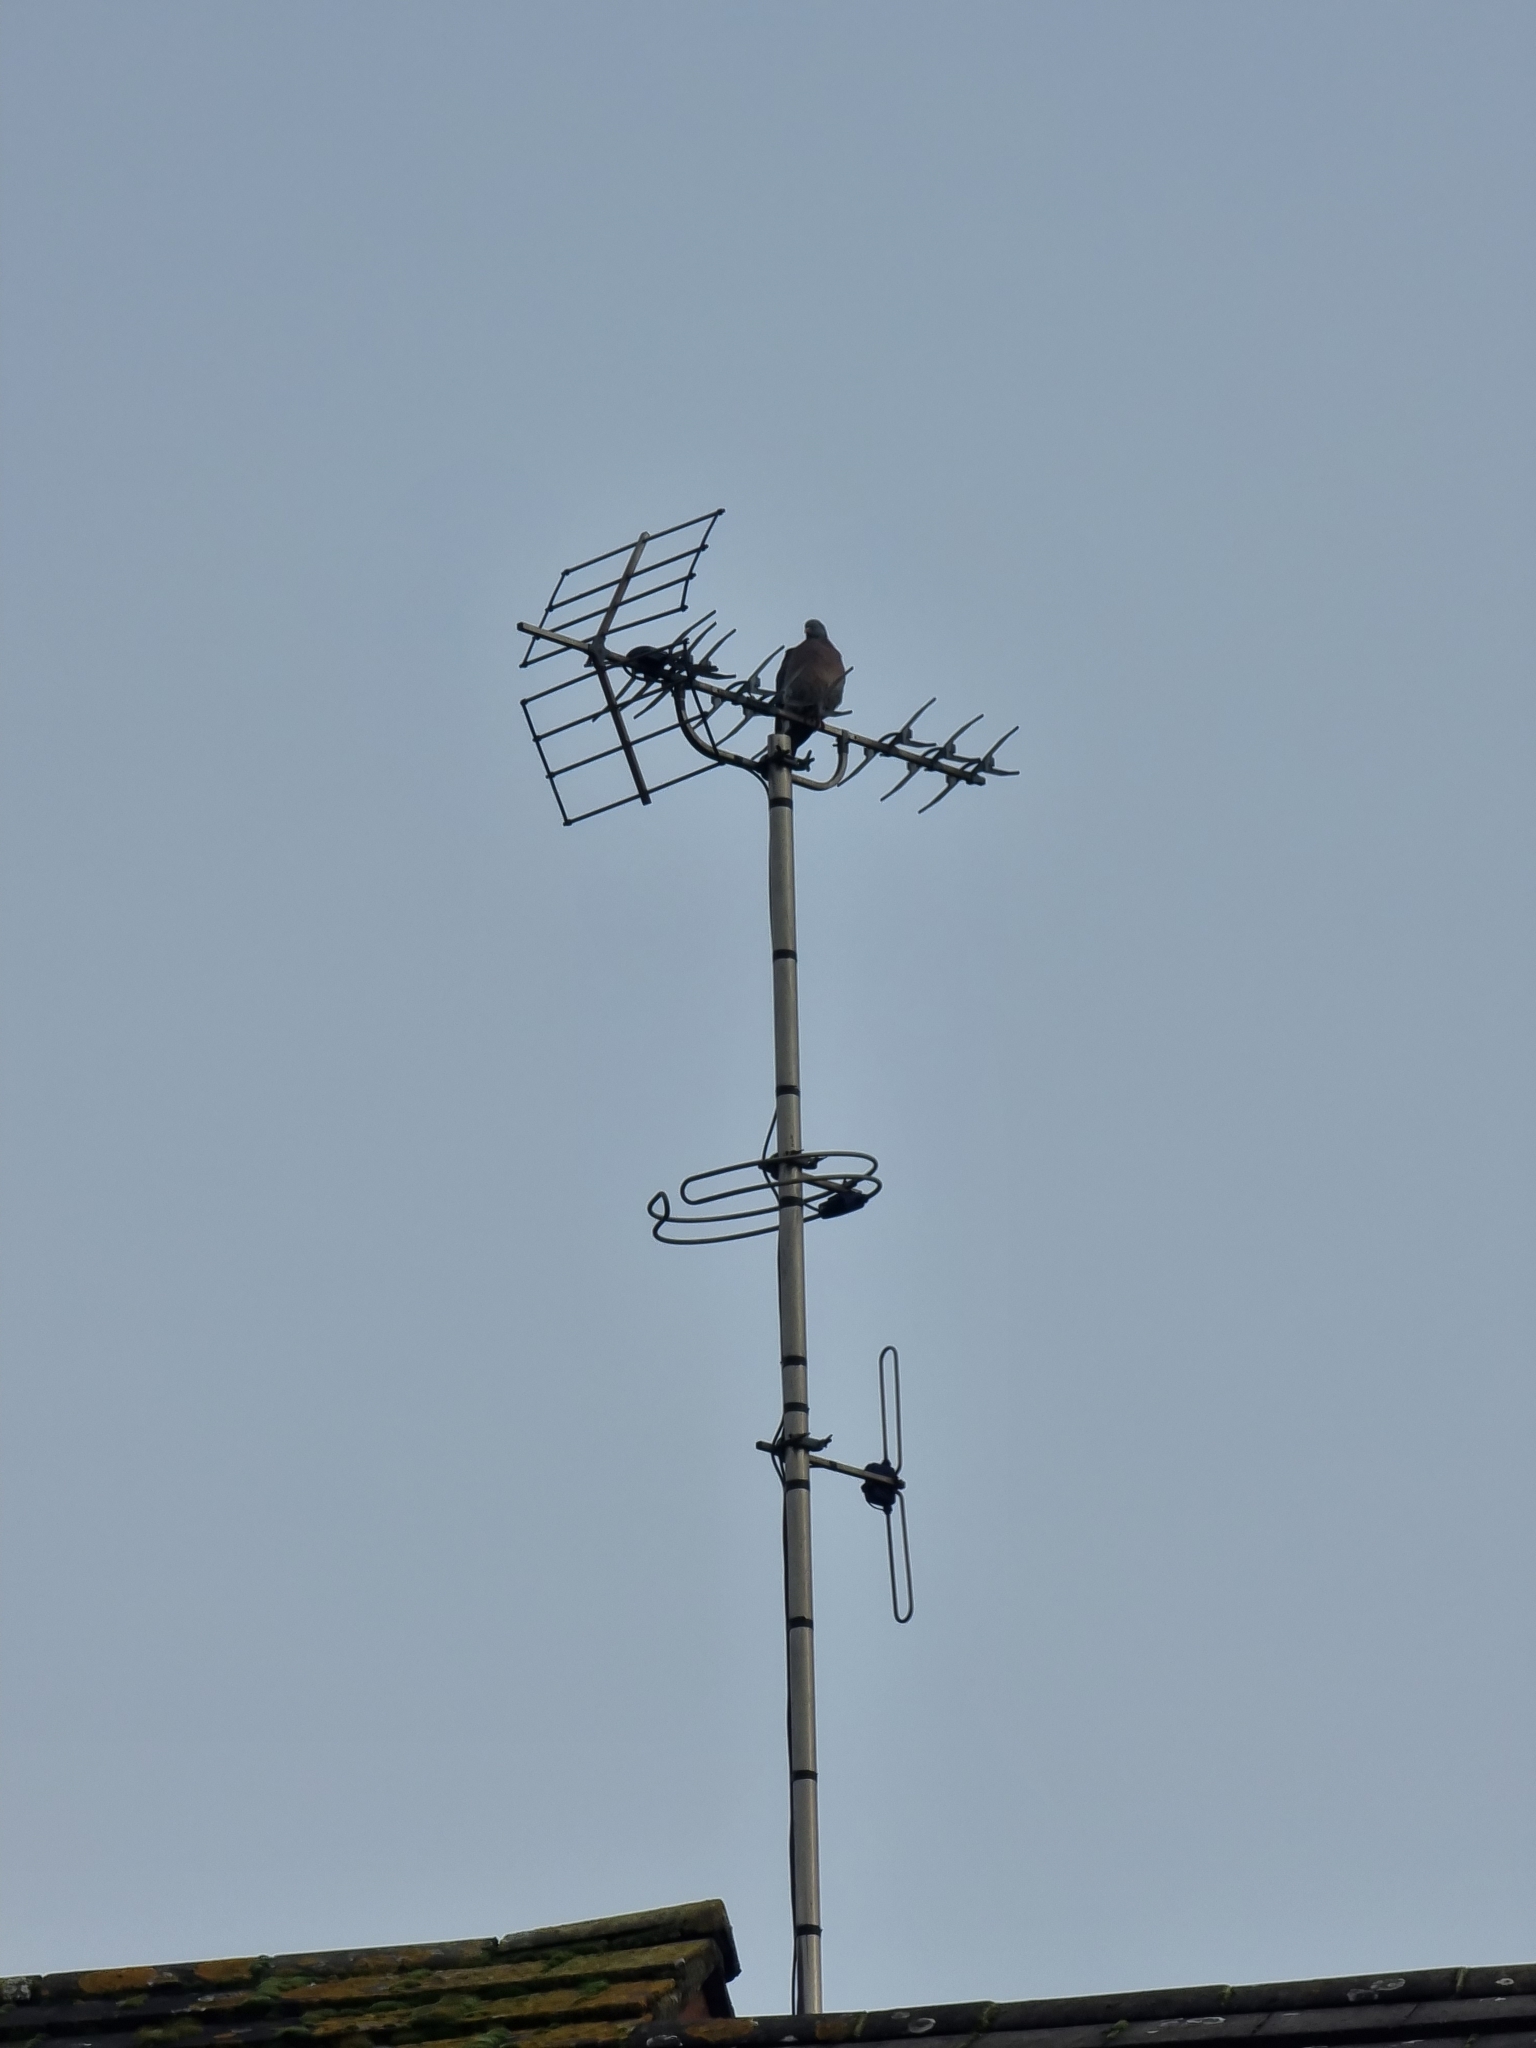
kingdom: Animalia
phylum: Chordata
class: Aves
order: Columbiformes
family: Columbidae
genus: Columba
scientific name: Columba palumbus
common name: Common wood pigeon
